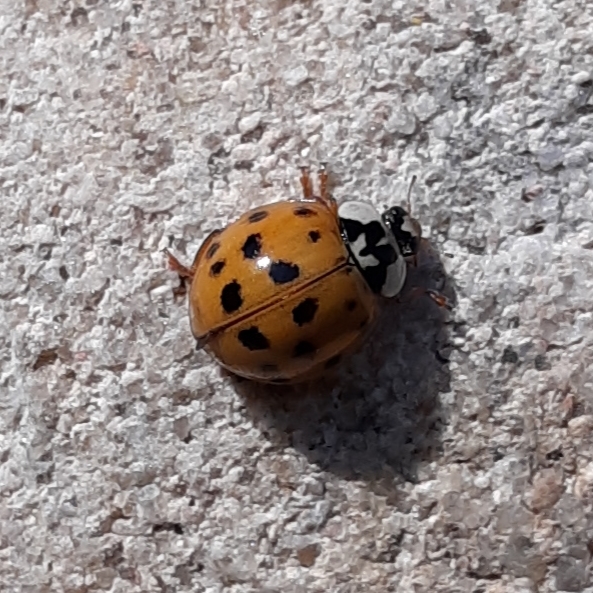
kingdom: Animalia
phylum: Arthropoda
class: Insecta
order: Coleoptera
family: Coccinellidae
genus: Harmonia
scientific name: Harmonia axyridis
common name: Harlequin ladybird
